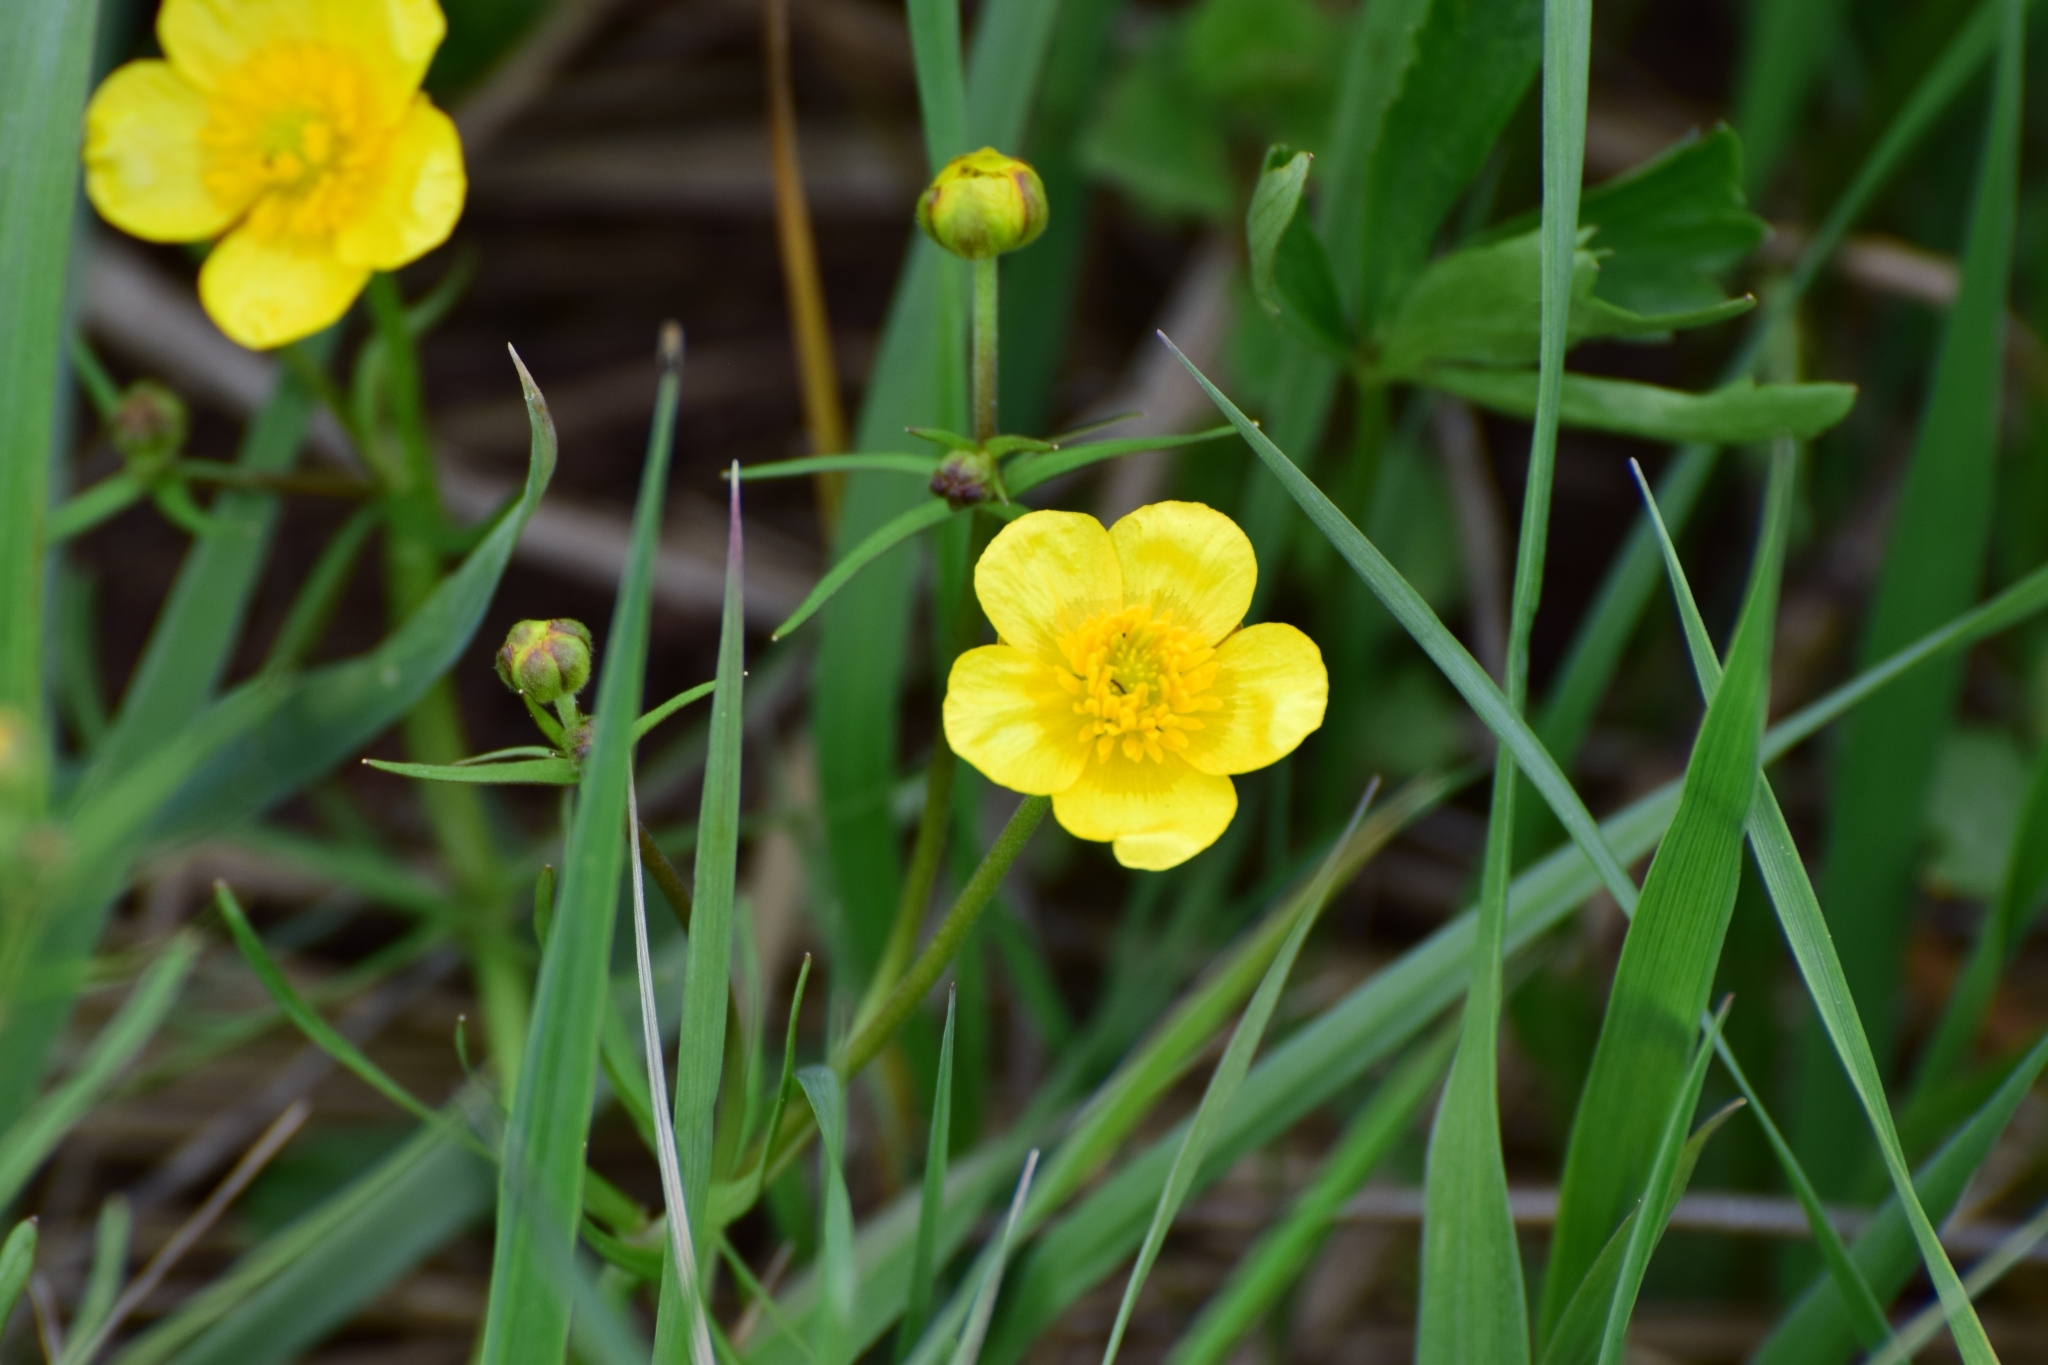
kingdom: Plantae
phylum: Tracheophyta
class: Magnoliopsida
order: Ranunculales
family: Ranunculaceae
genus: Ranunculus
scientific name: Ranunculus auricomus
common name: Goldilocks buttercup
